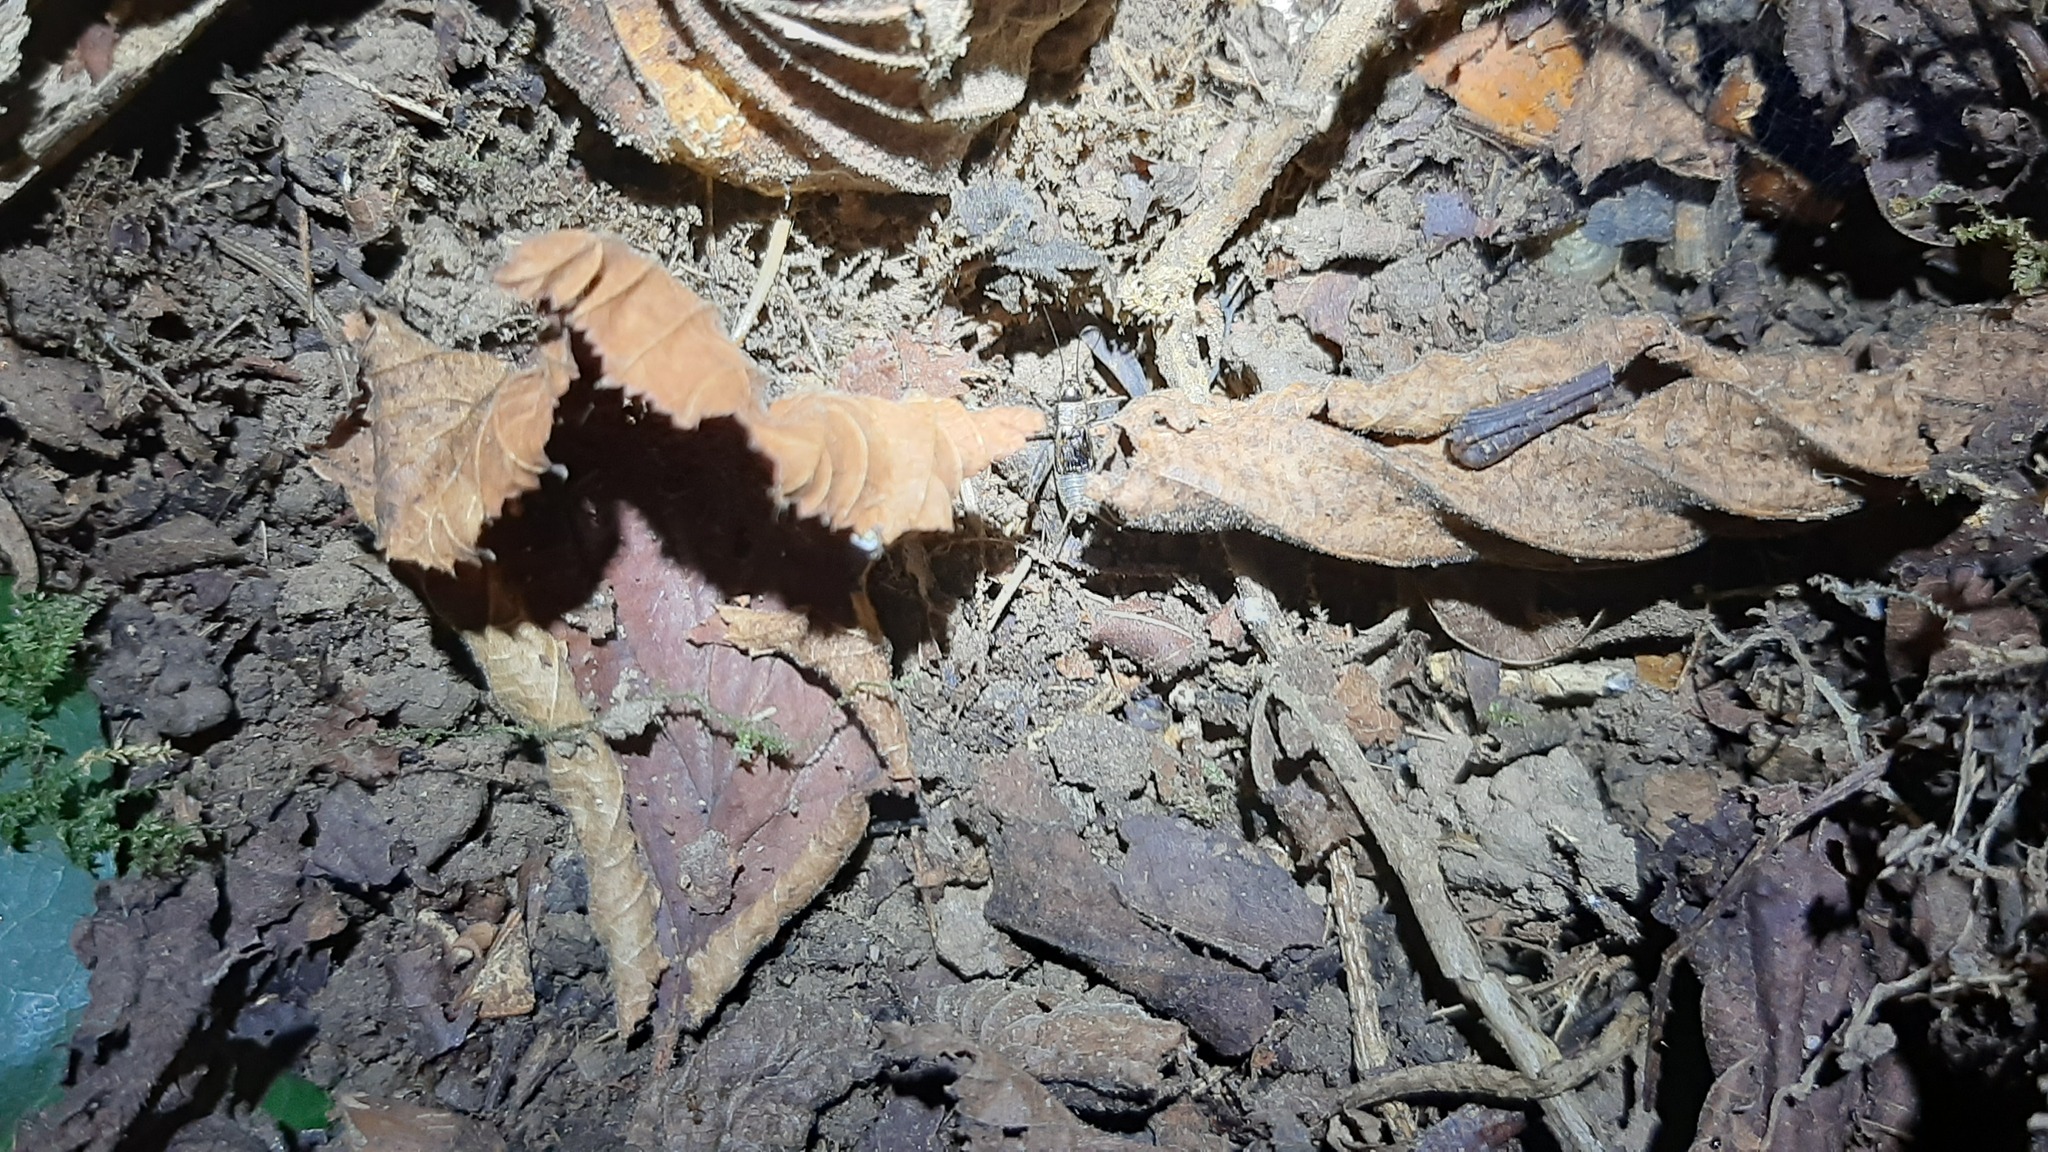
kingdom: Animalia
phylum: Arthropoda
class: Insecta
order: Orthoptera
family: Trigonidiidae
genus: Nemobius
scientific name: Nemobius sylvestris
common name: Wood-cricket
